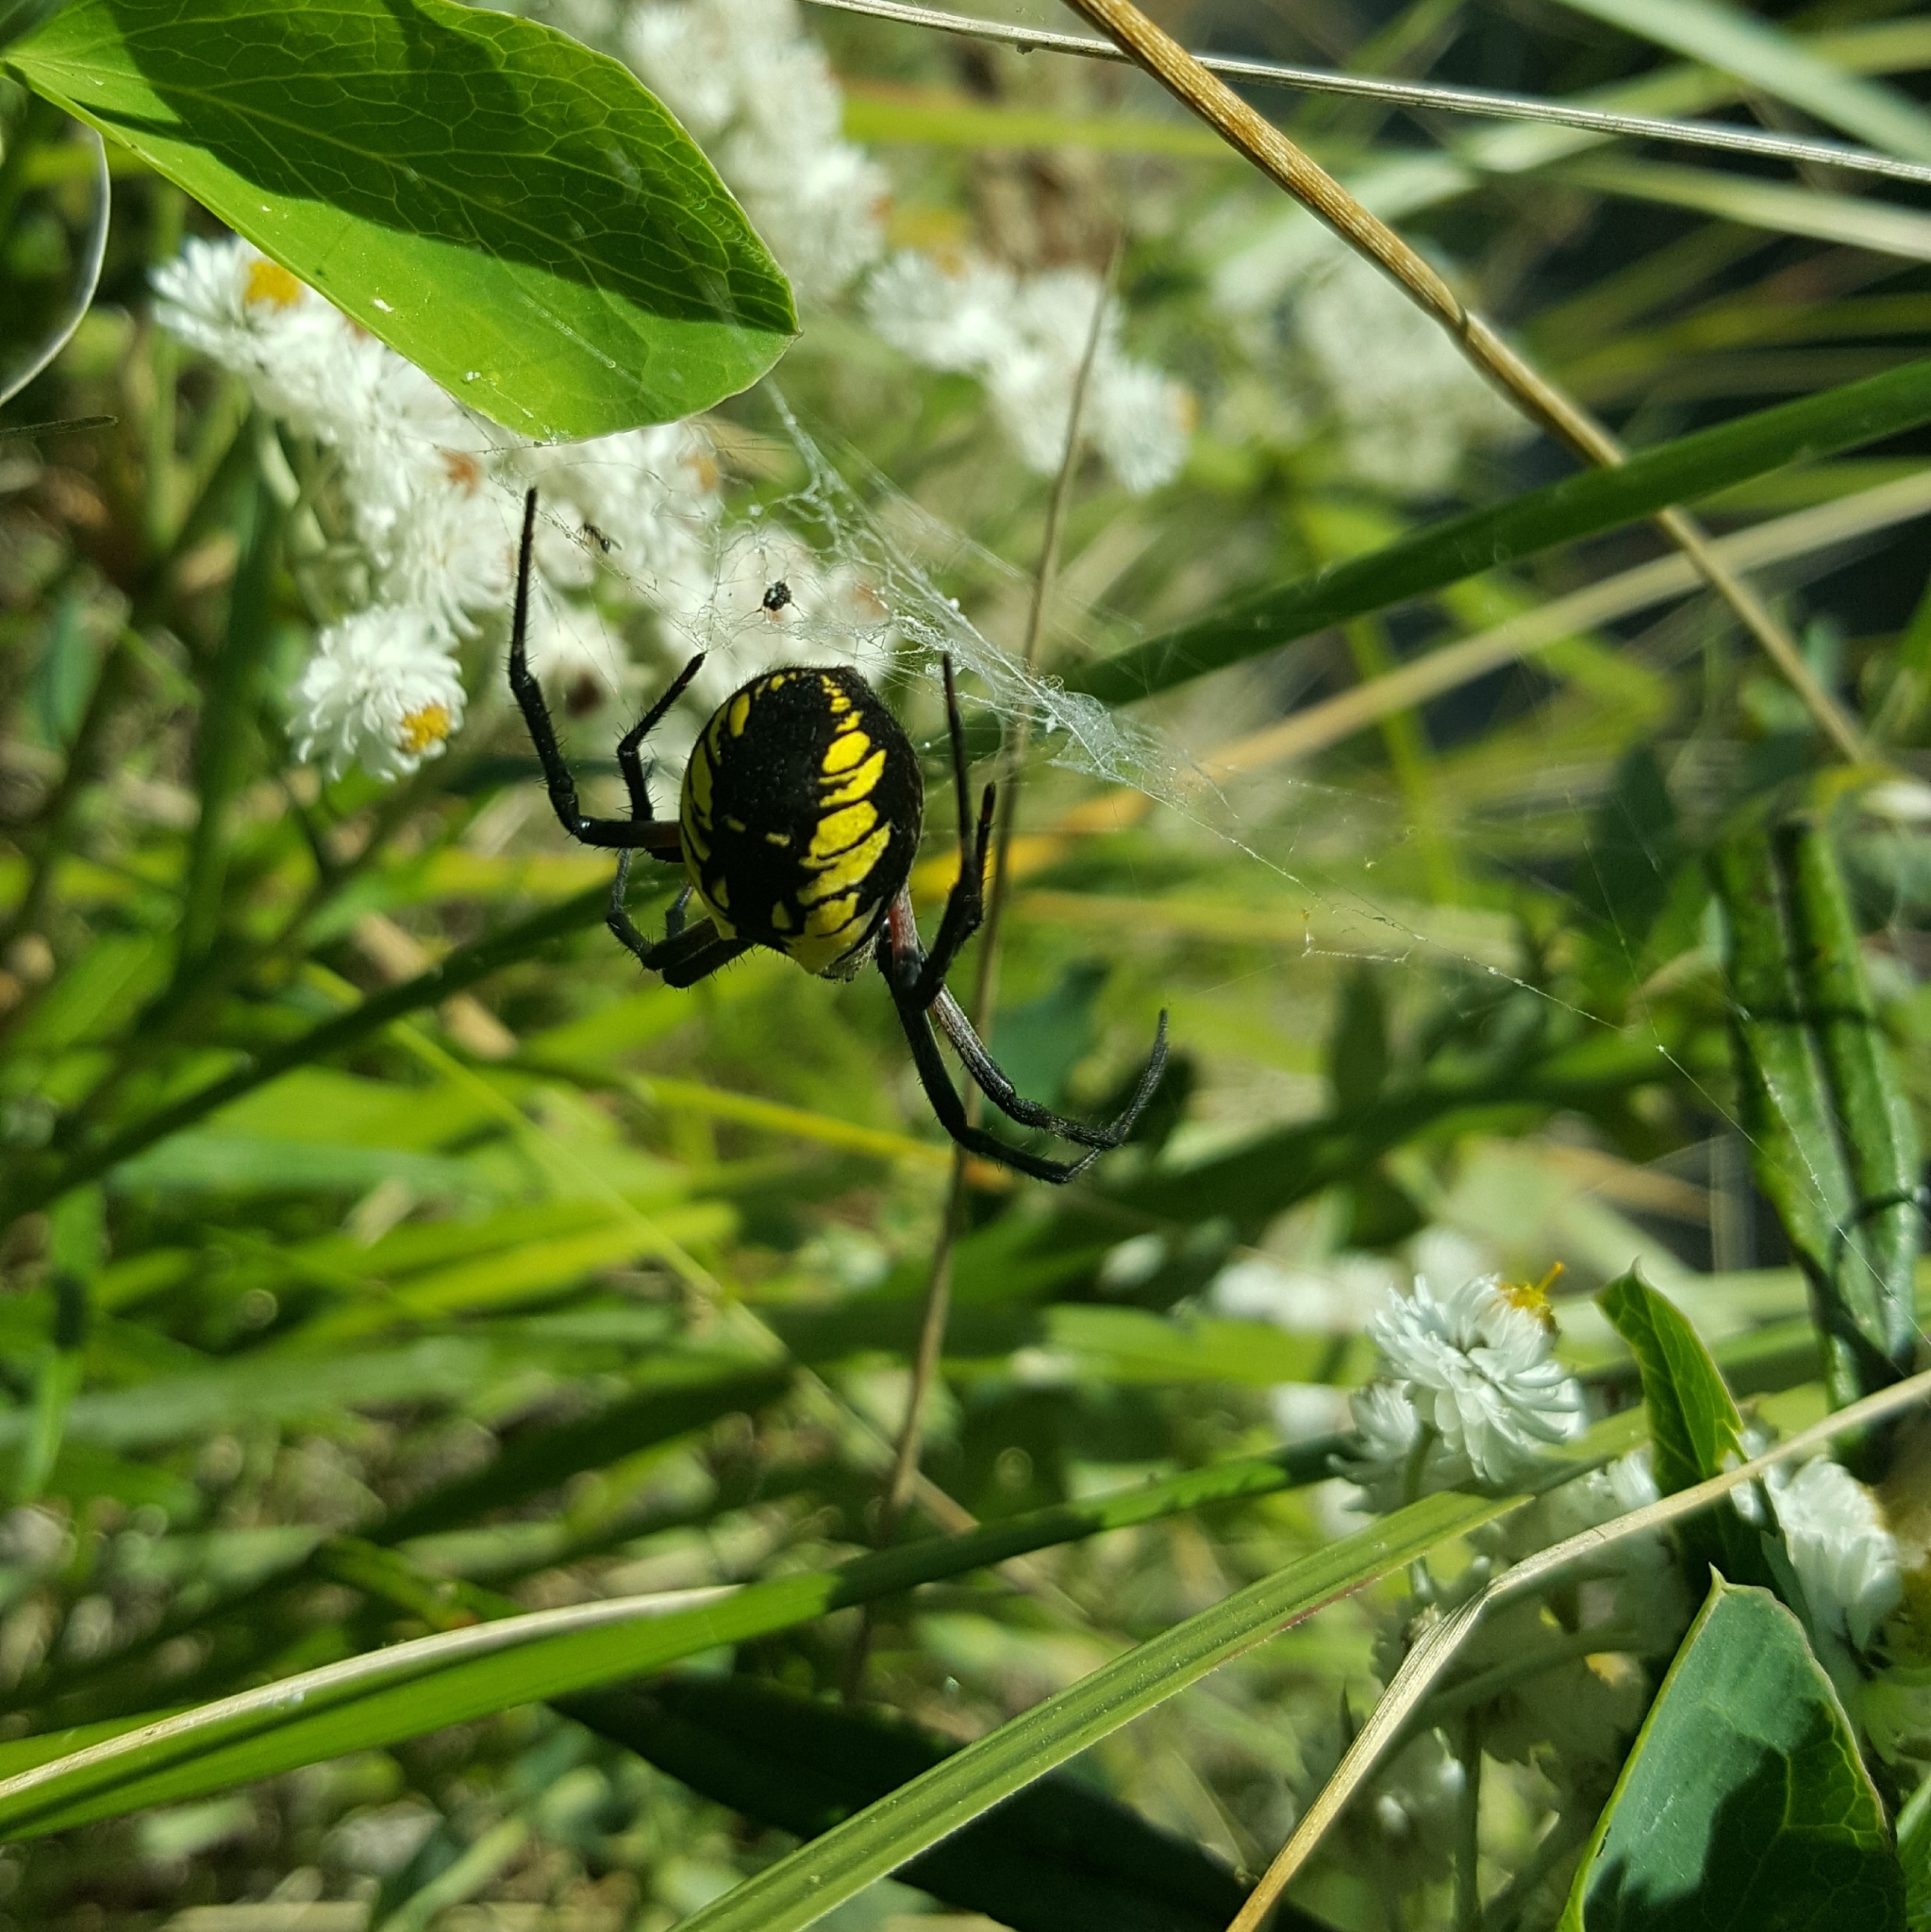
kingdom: Animalia
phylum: Arthropoda
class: Arachnida
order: Araneae
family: Araneidae
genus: Argiope
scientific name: Argiope aurantia
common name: Orb weavers
